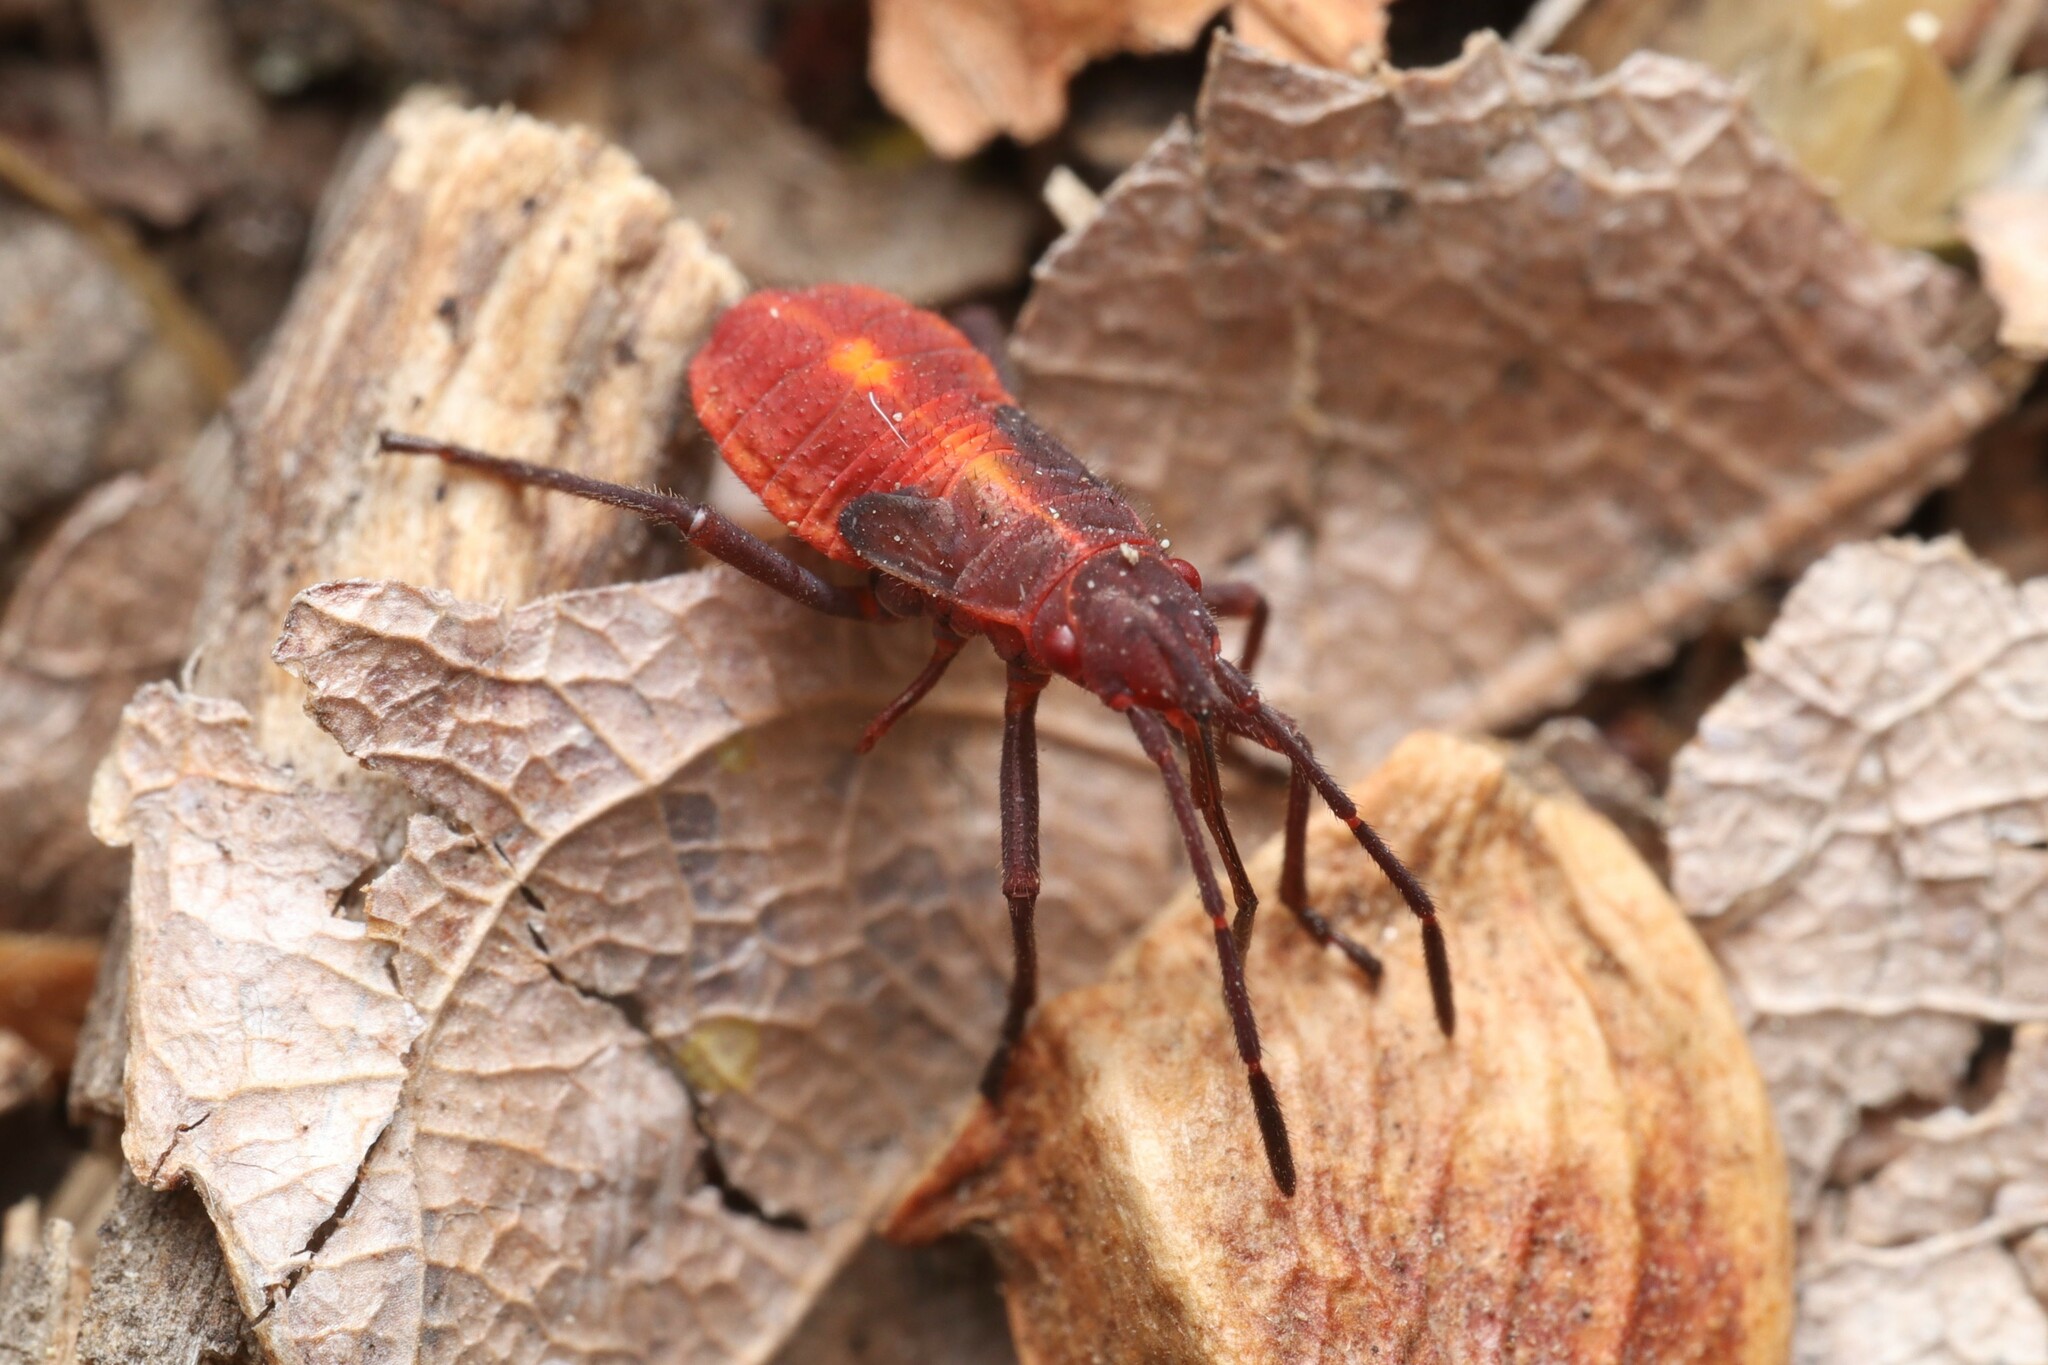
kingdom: Animalia
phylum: Arthropoda
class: Insecta
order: Hemiptera
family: Rhopalidae
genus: Boisea
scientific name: Boisea trivittata
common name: Boxelder bug
